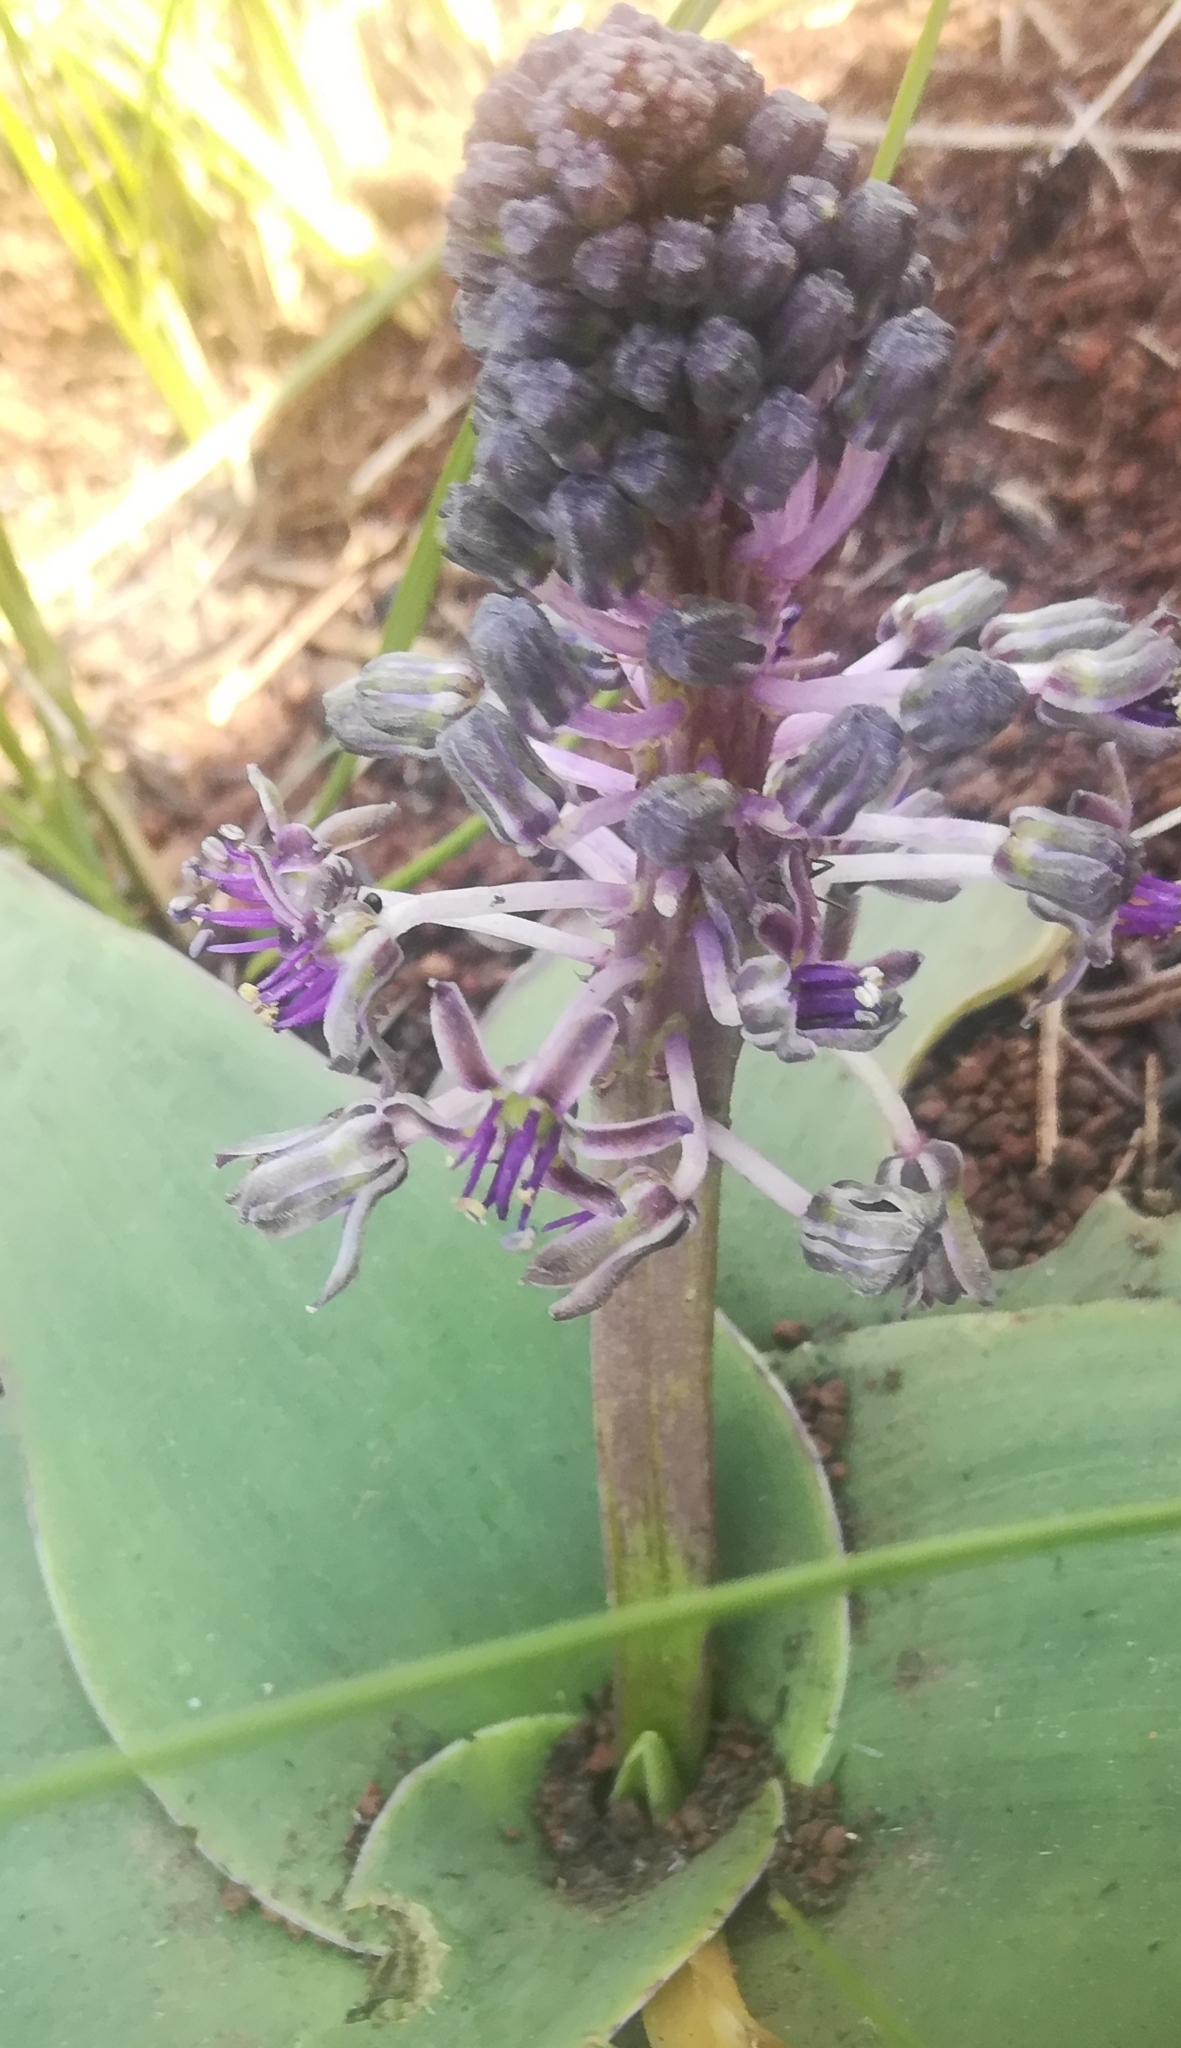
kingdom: Plantae
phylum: Tracheophyta
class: Liliopsida
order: Asparagales
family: Asparagaceae
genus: Ledebouria
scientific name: Ledebouria ovatifolia
